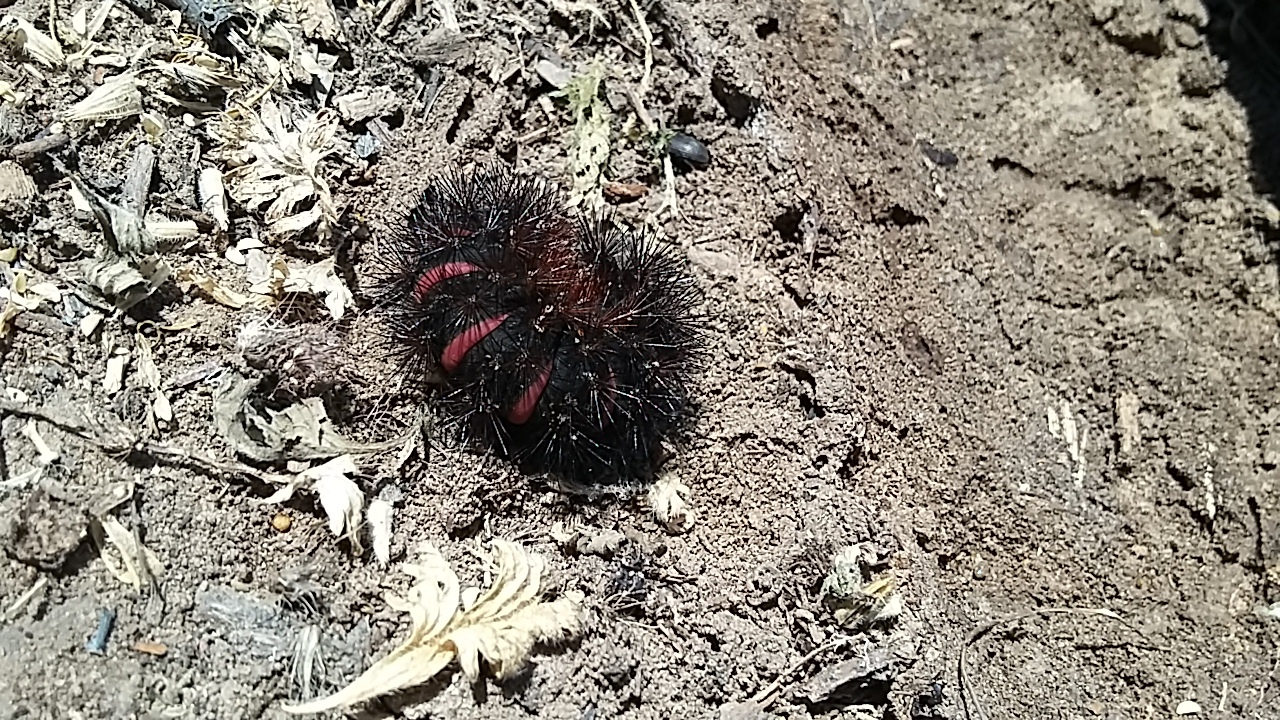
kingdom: Animalia
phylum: Arthropoda
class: Insecta
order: Lepidoptera
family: Erebidae
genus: Hypercompe
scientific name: Hypercompe scribonia
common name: Giant leopard moth
